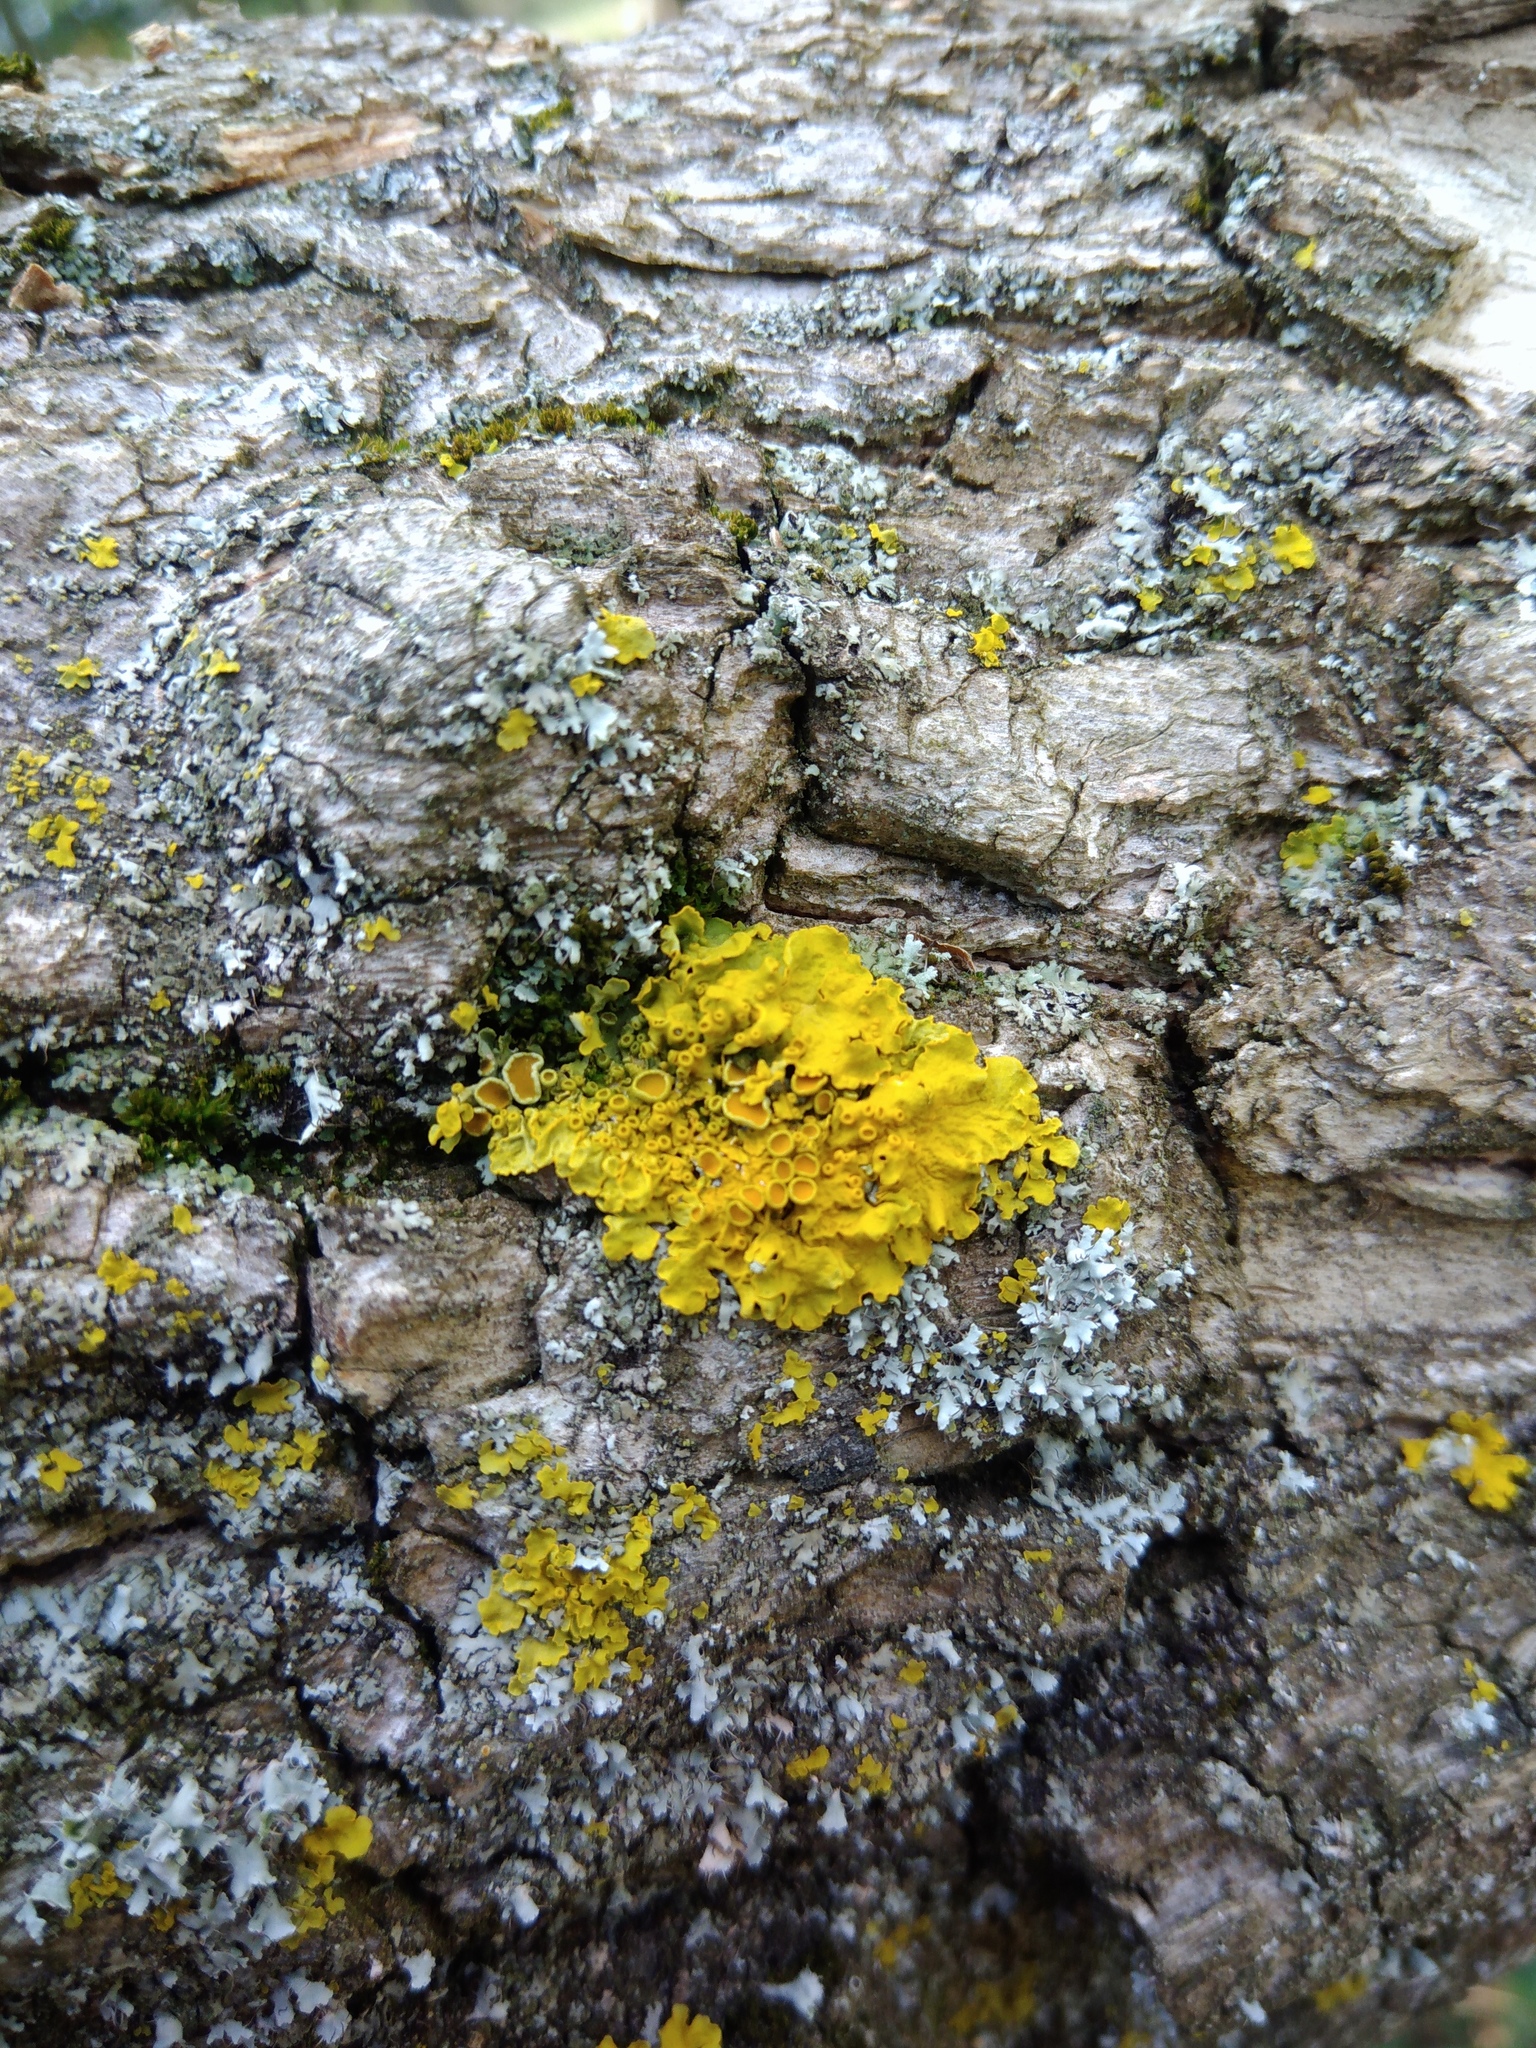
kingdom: Fungi
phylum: Ascomycota
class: Lecanoromycetes
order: Teloschistales
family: Teloschistaceae
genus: Xanthoria
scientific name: Xanthoria parietina
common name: Common orange lichen
